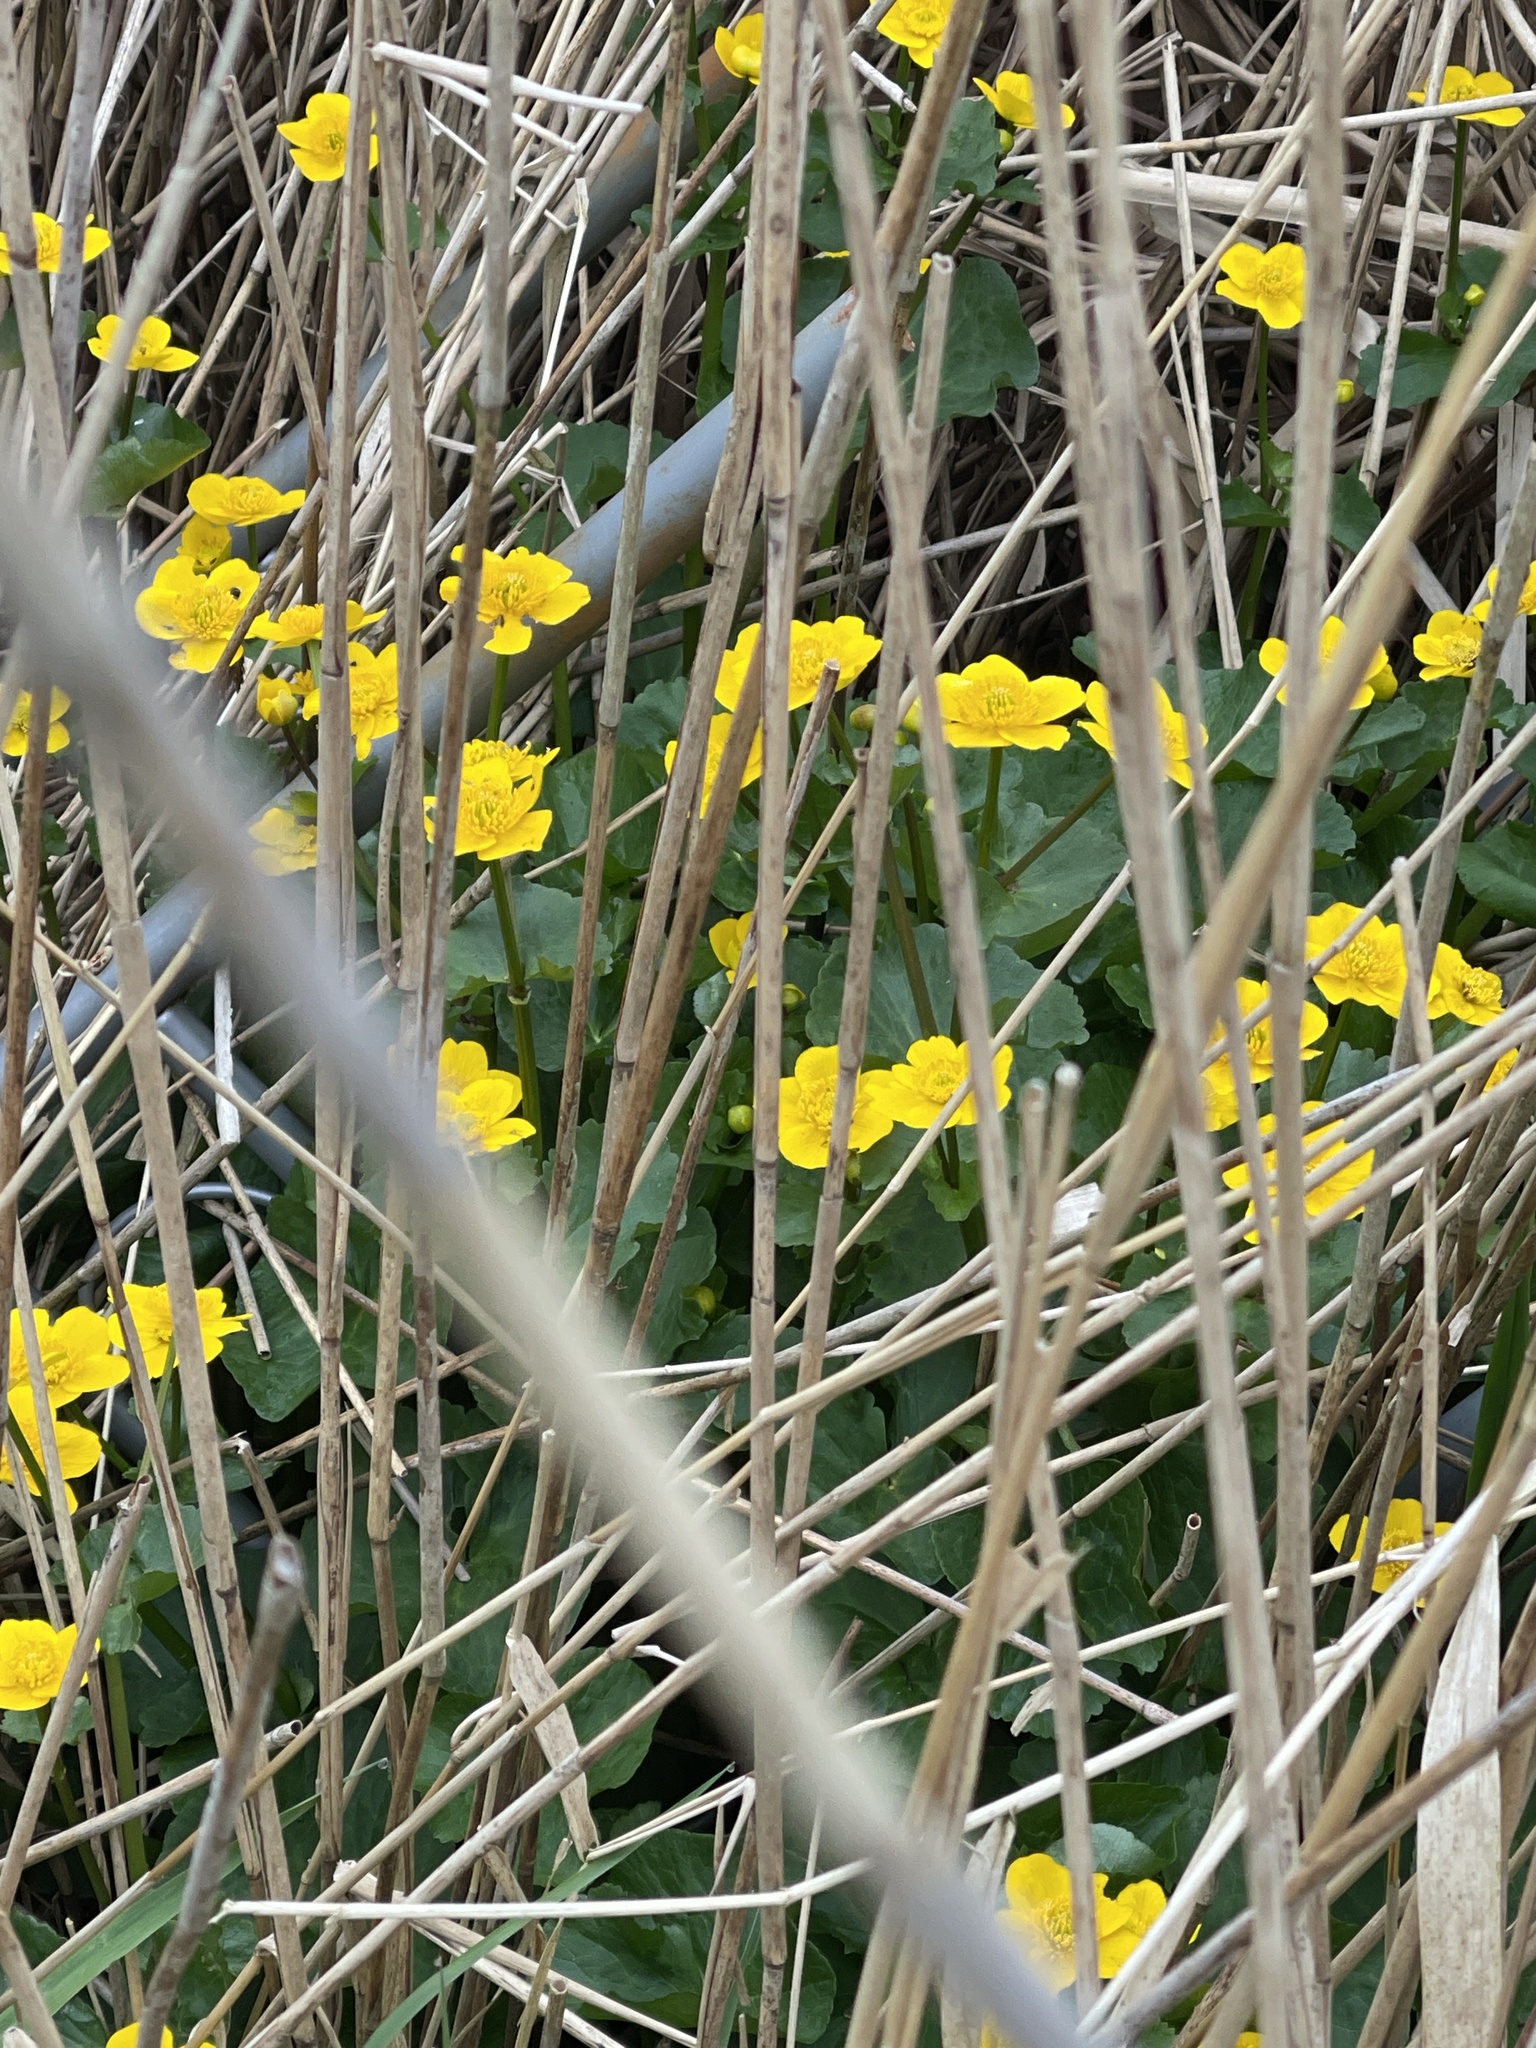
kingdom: Plantae
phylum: Tracheophyta
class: Magnoliopsida
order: Ranunculales
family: Ranunculaceae
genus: Caltha
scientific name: Caltha palustris
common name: Marsh marigold
